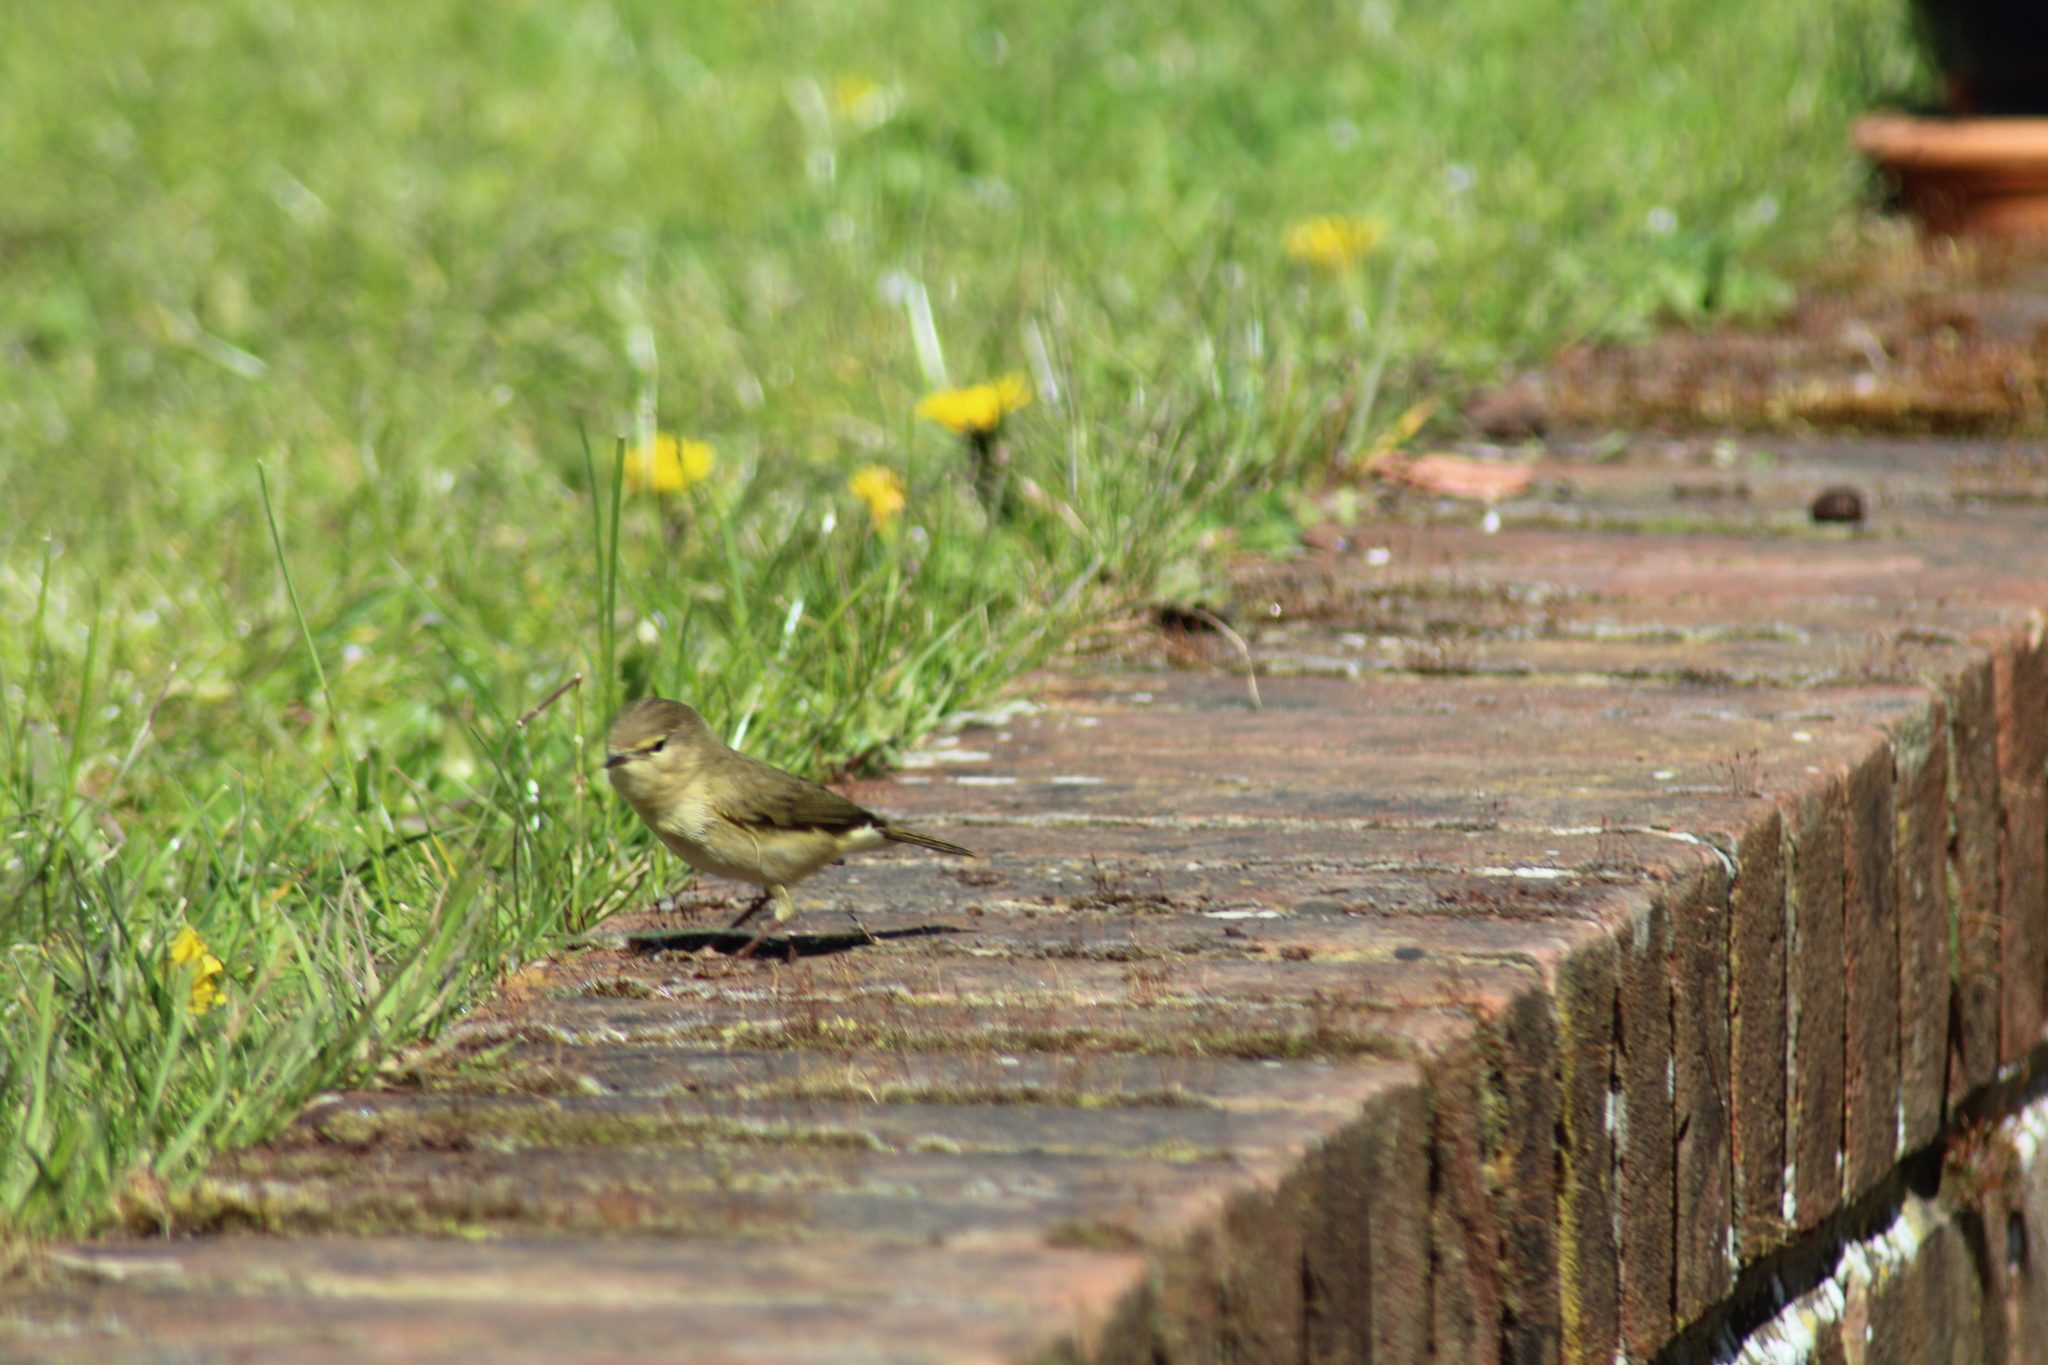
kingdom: Animalia
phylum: Chordata
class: Aves
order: Passeriformes
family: Phylloscopidae
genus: Phylloscopus
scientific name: Phylloscopus collybita
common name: Common chiffchaff
